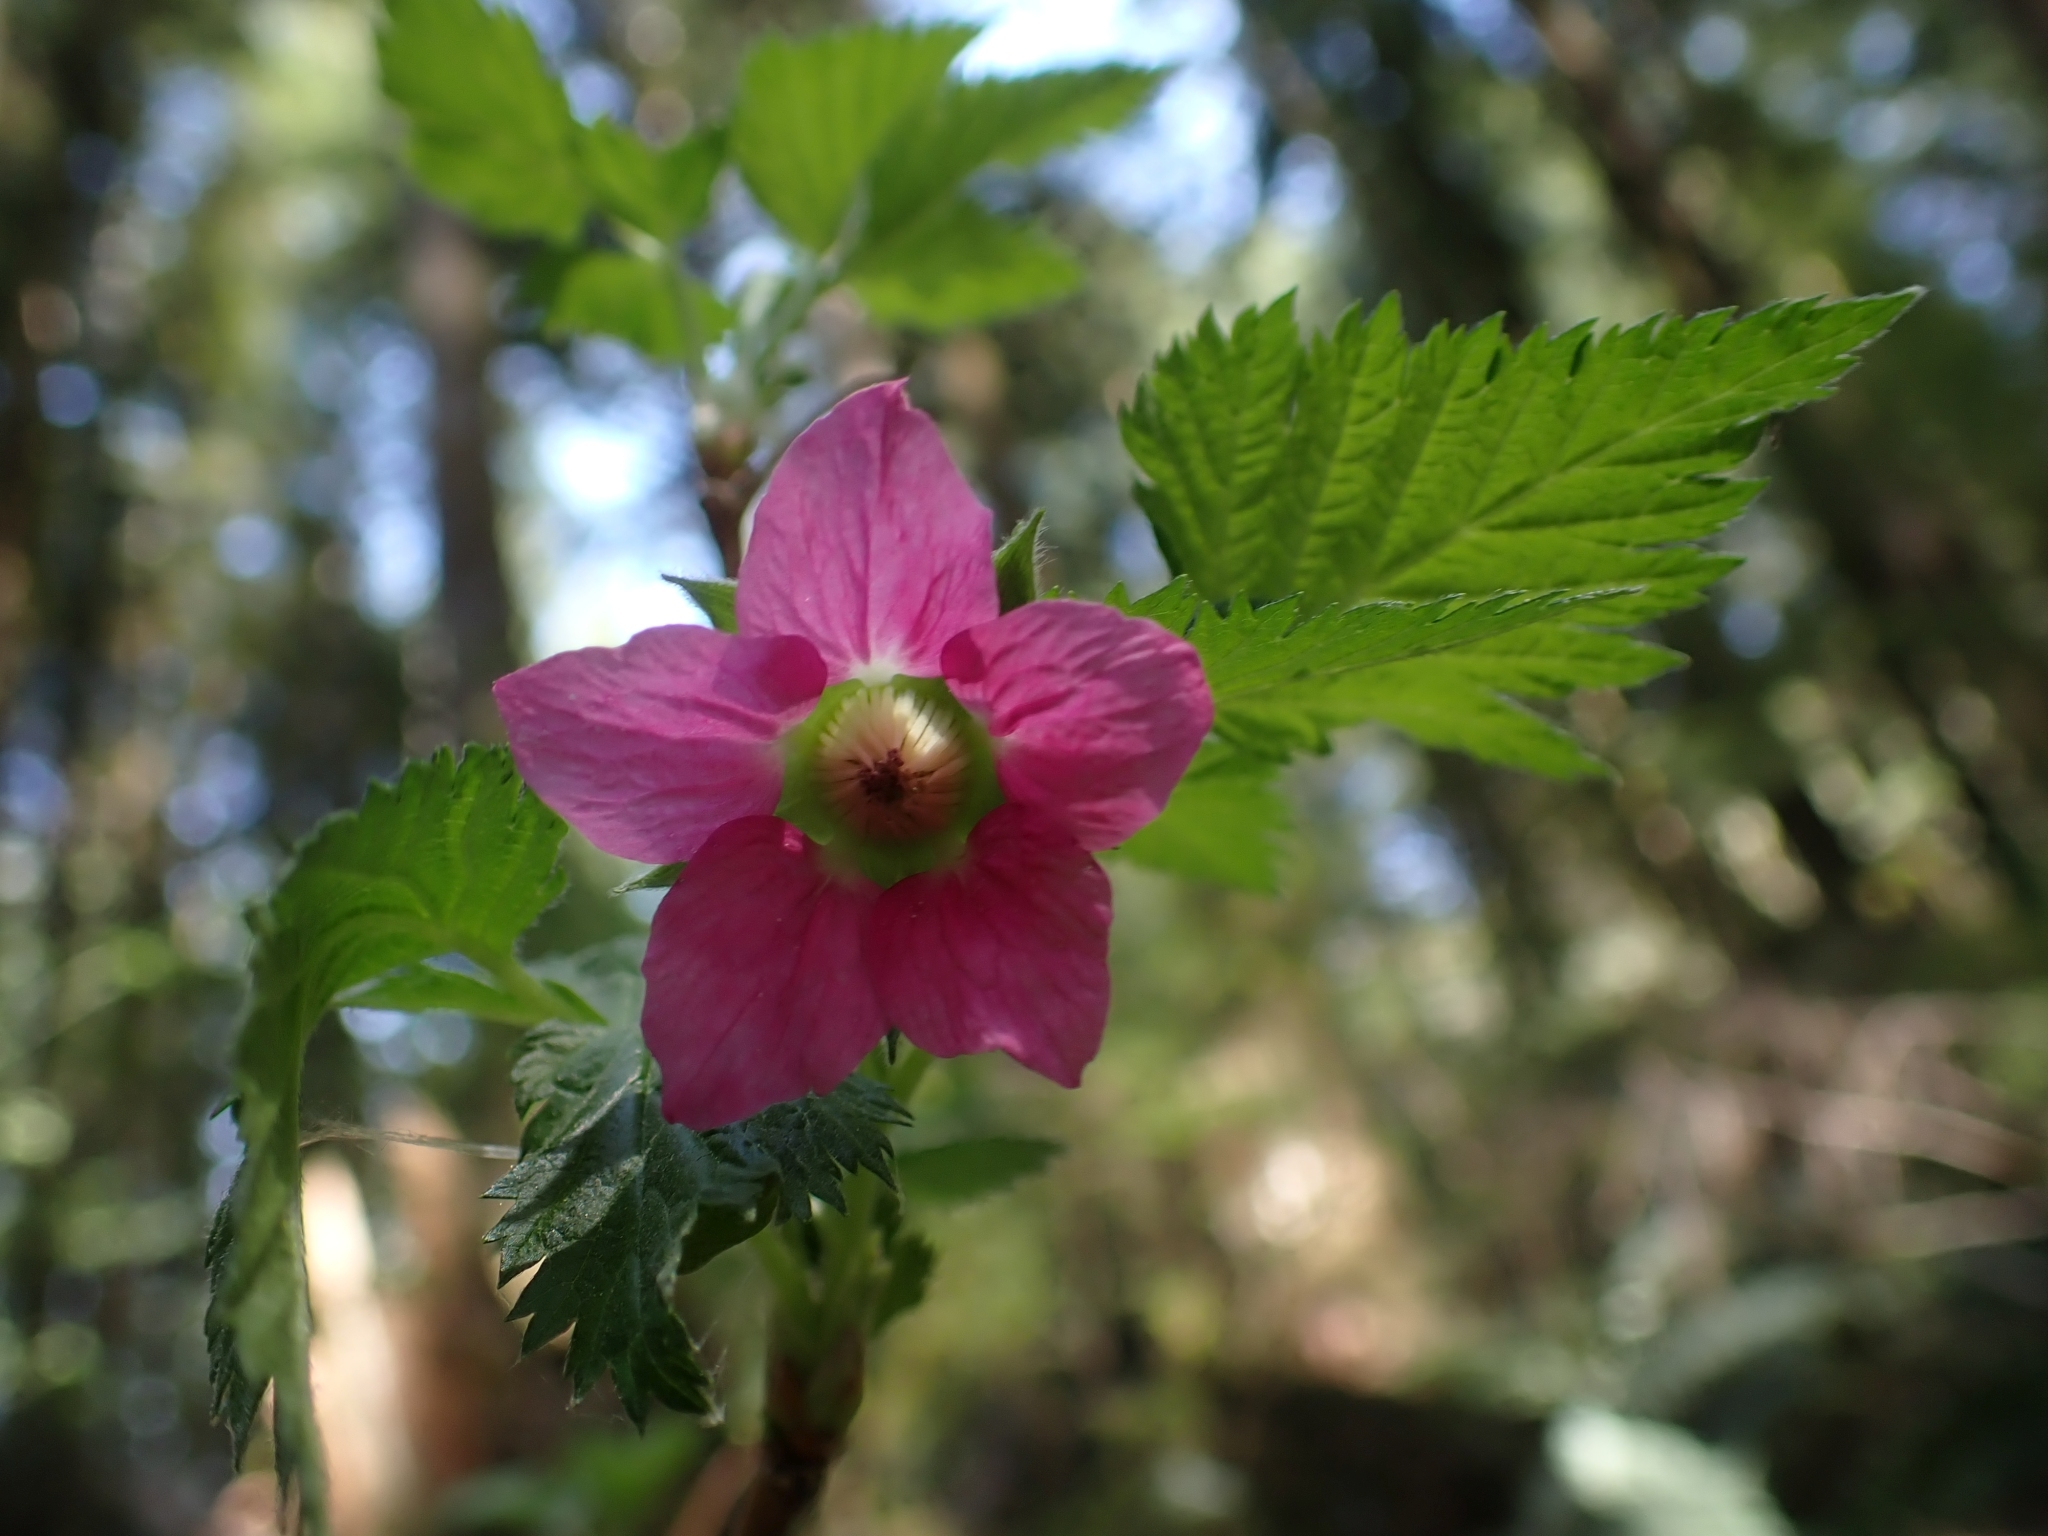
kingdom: Plantae
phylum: Tracheophyta
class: Magnoliopsida
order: Rosales
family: Rosaceae
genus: Rubus
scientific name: Rubus spectabilis
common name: Salmonberry
